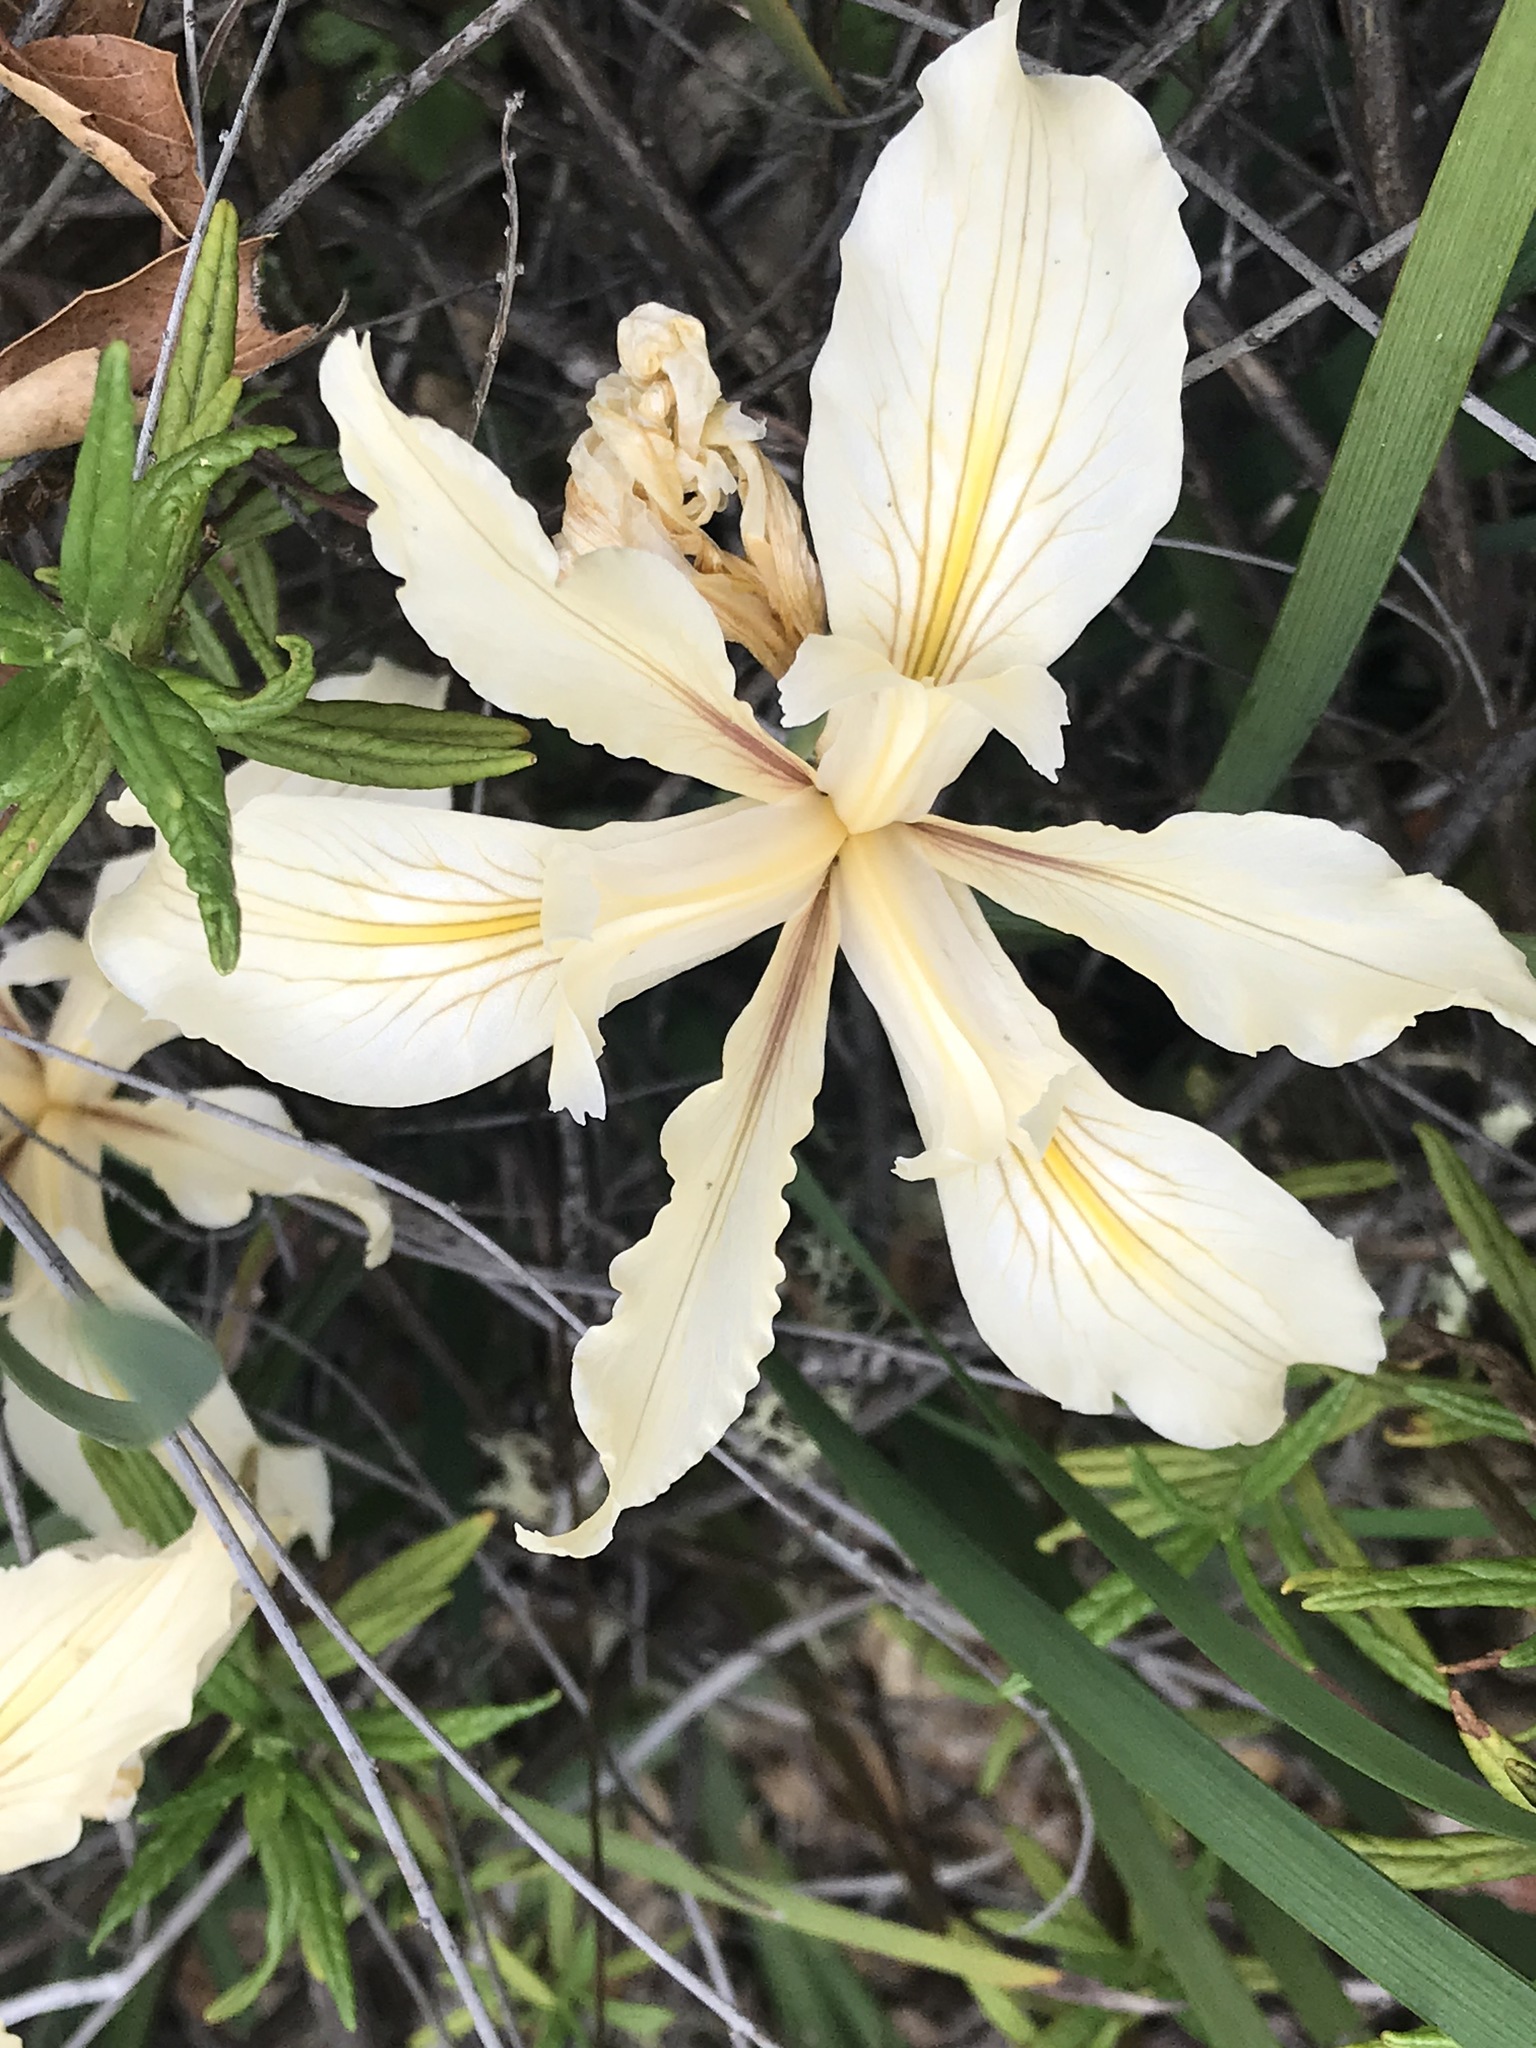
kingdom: Plantae
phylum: Tracheophyta
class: Liliopsida
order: Asparagales
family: Iridaceae
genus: Iris
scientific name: Iris fernaldii
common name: Fernald's iris
